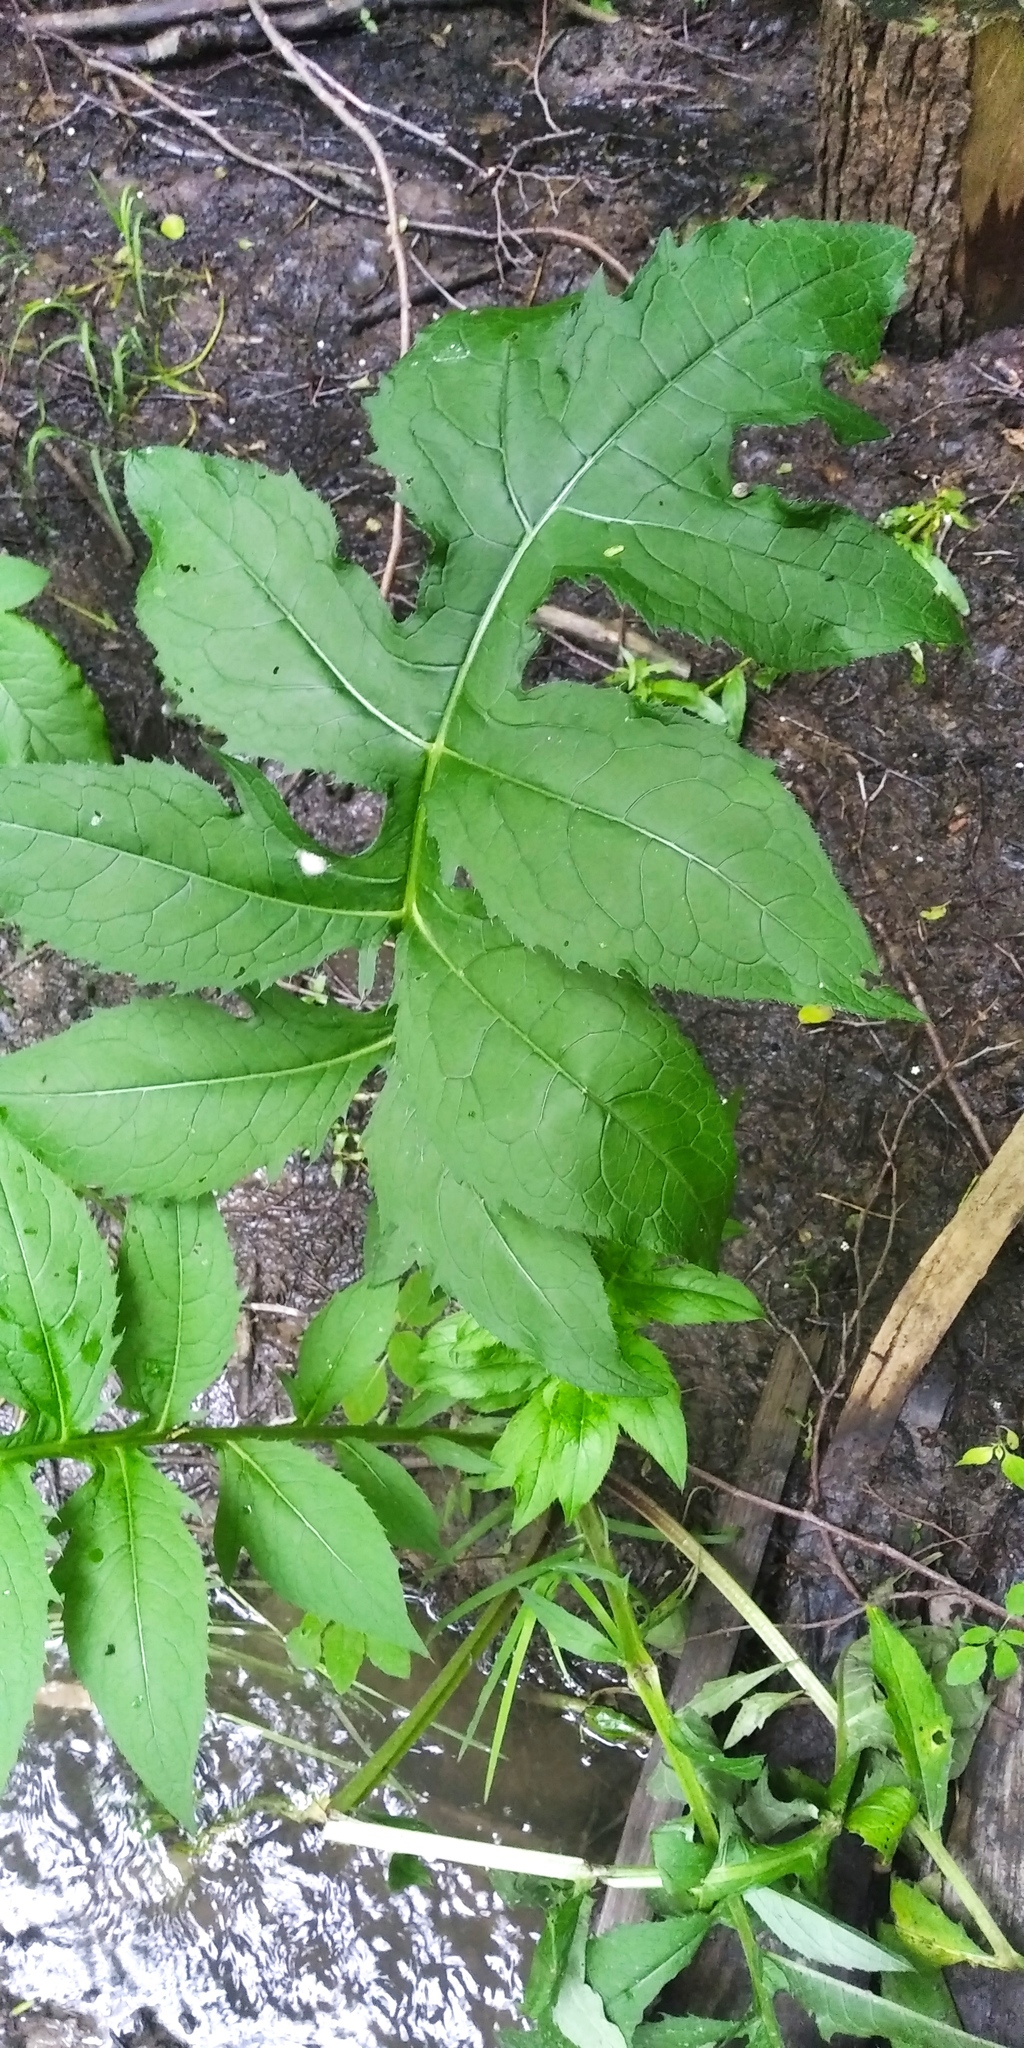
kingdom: Plantae
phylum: Tracheophyta
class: Magnoliopsida
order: Asterales
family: Asteraceae
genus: Cirsium
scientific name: Cirsium oleraceum
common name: Cabbage thistle
